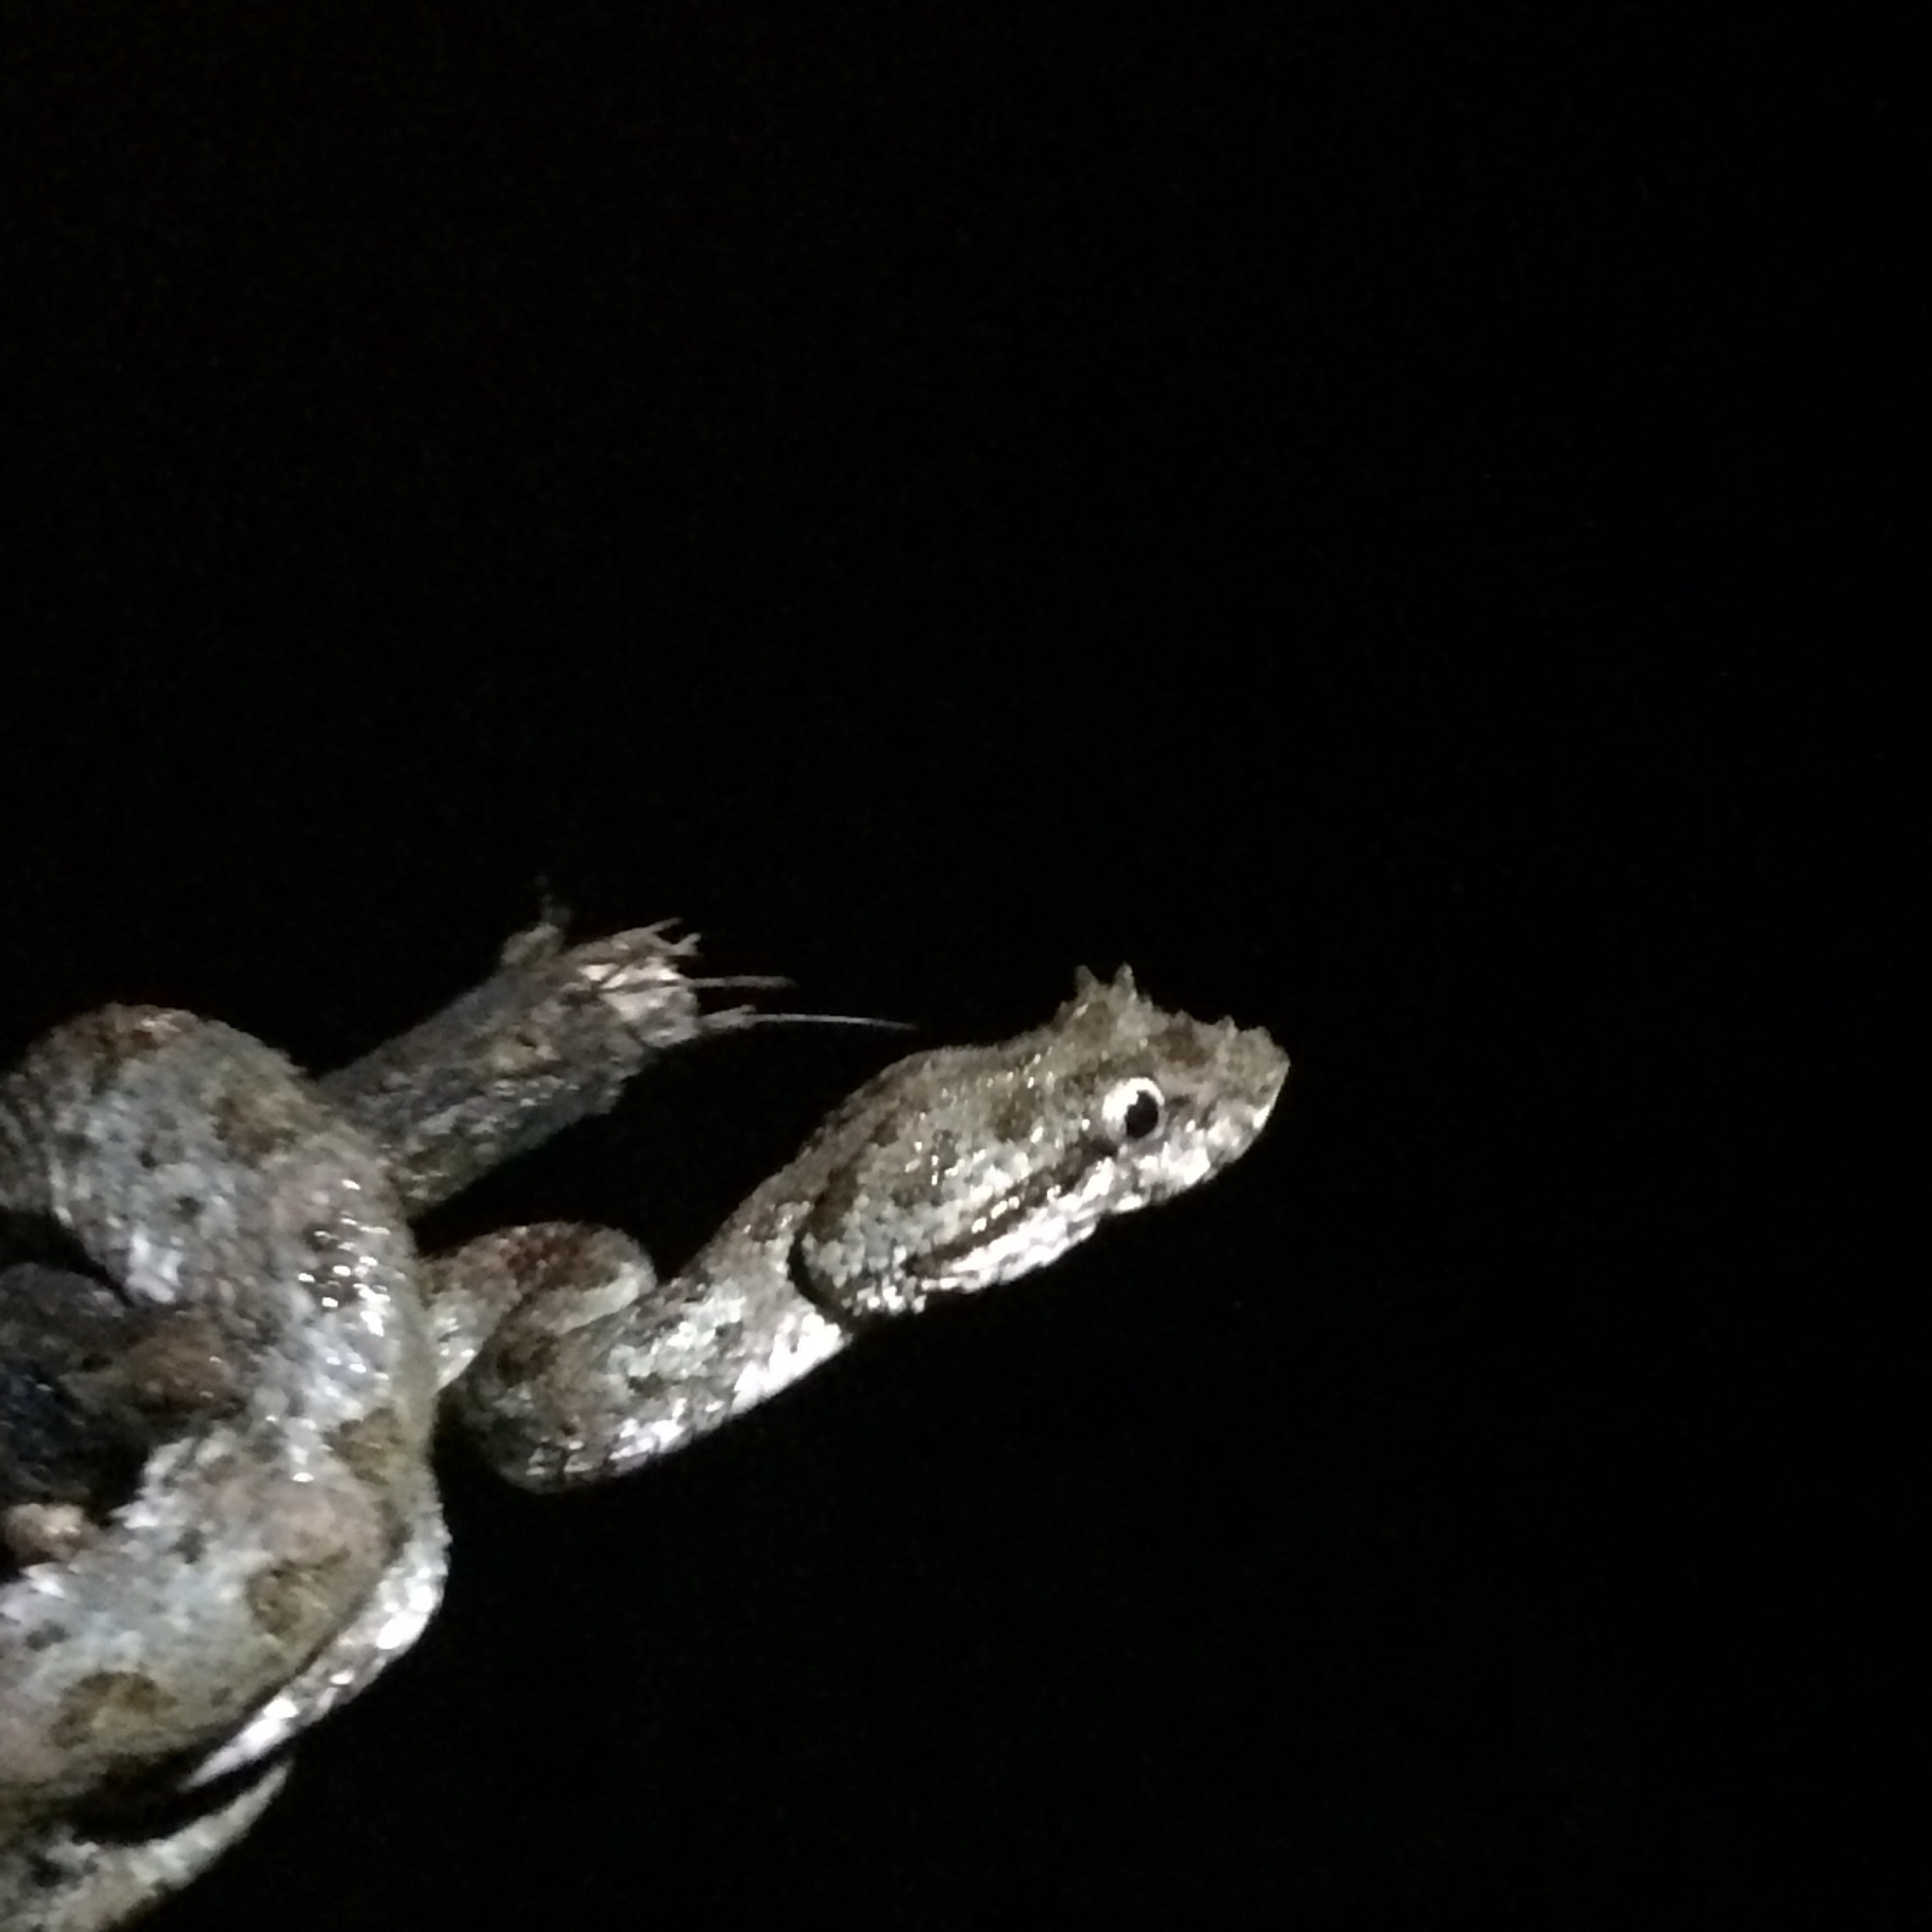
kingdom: Animalia
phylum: Chordata
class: Squamata
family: Viperidae
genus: Bothriechis
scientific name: Bothriechis schlegelii
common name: Eyelash viper
